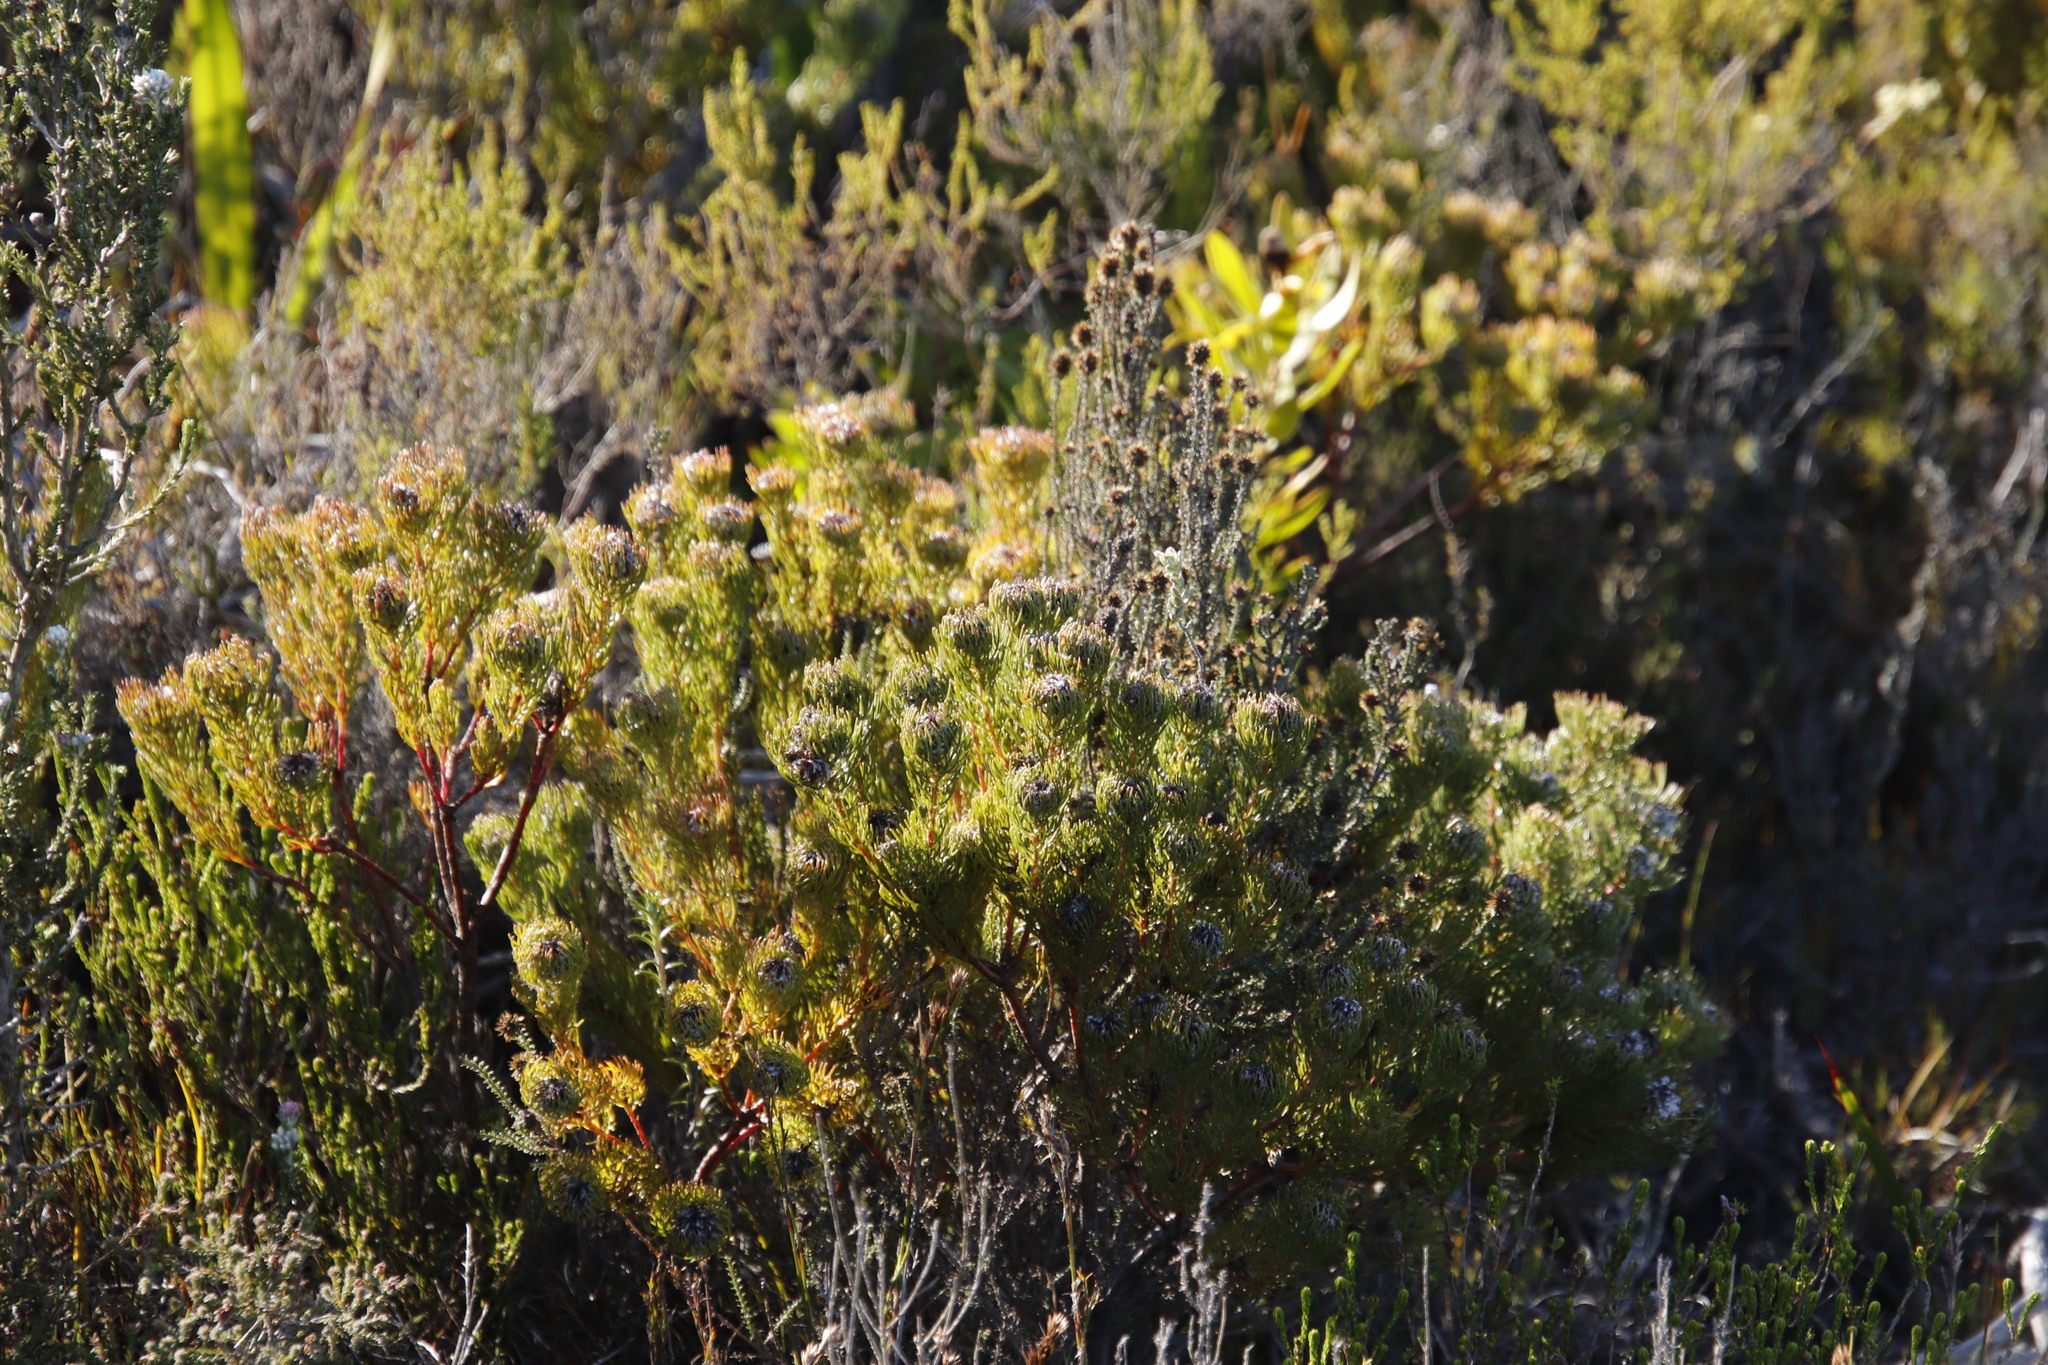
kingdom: Plantae
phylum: Tracheophyta
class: Magnoliopsida
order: Proteales
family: Proteaceae
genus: Serruria
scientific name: Serruria villosa
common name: Golden spiderhead
